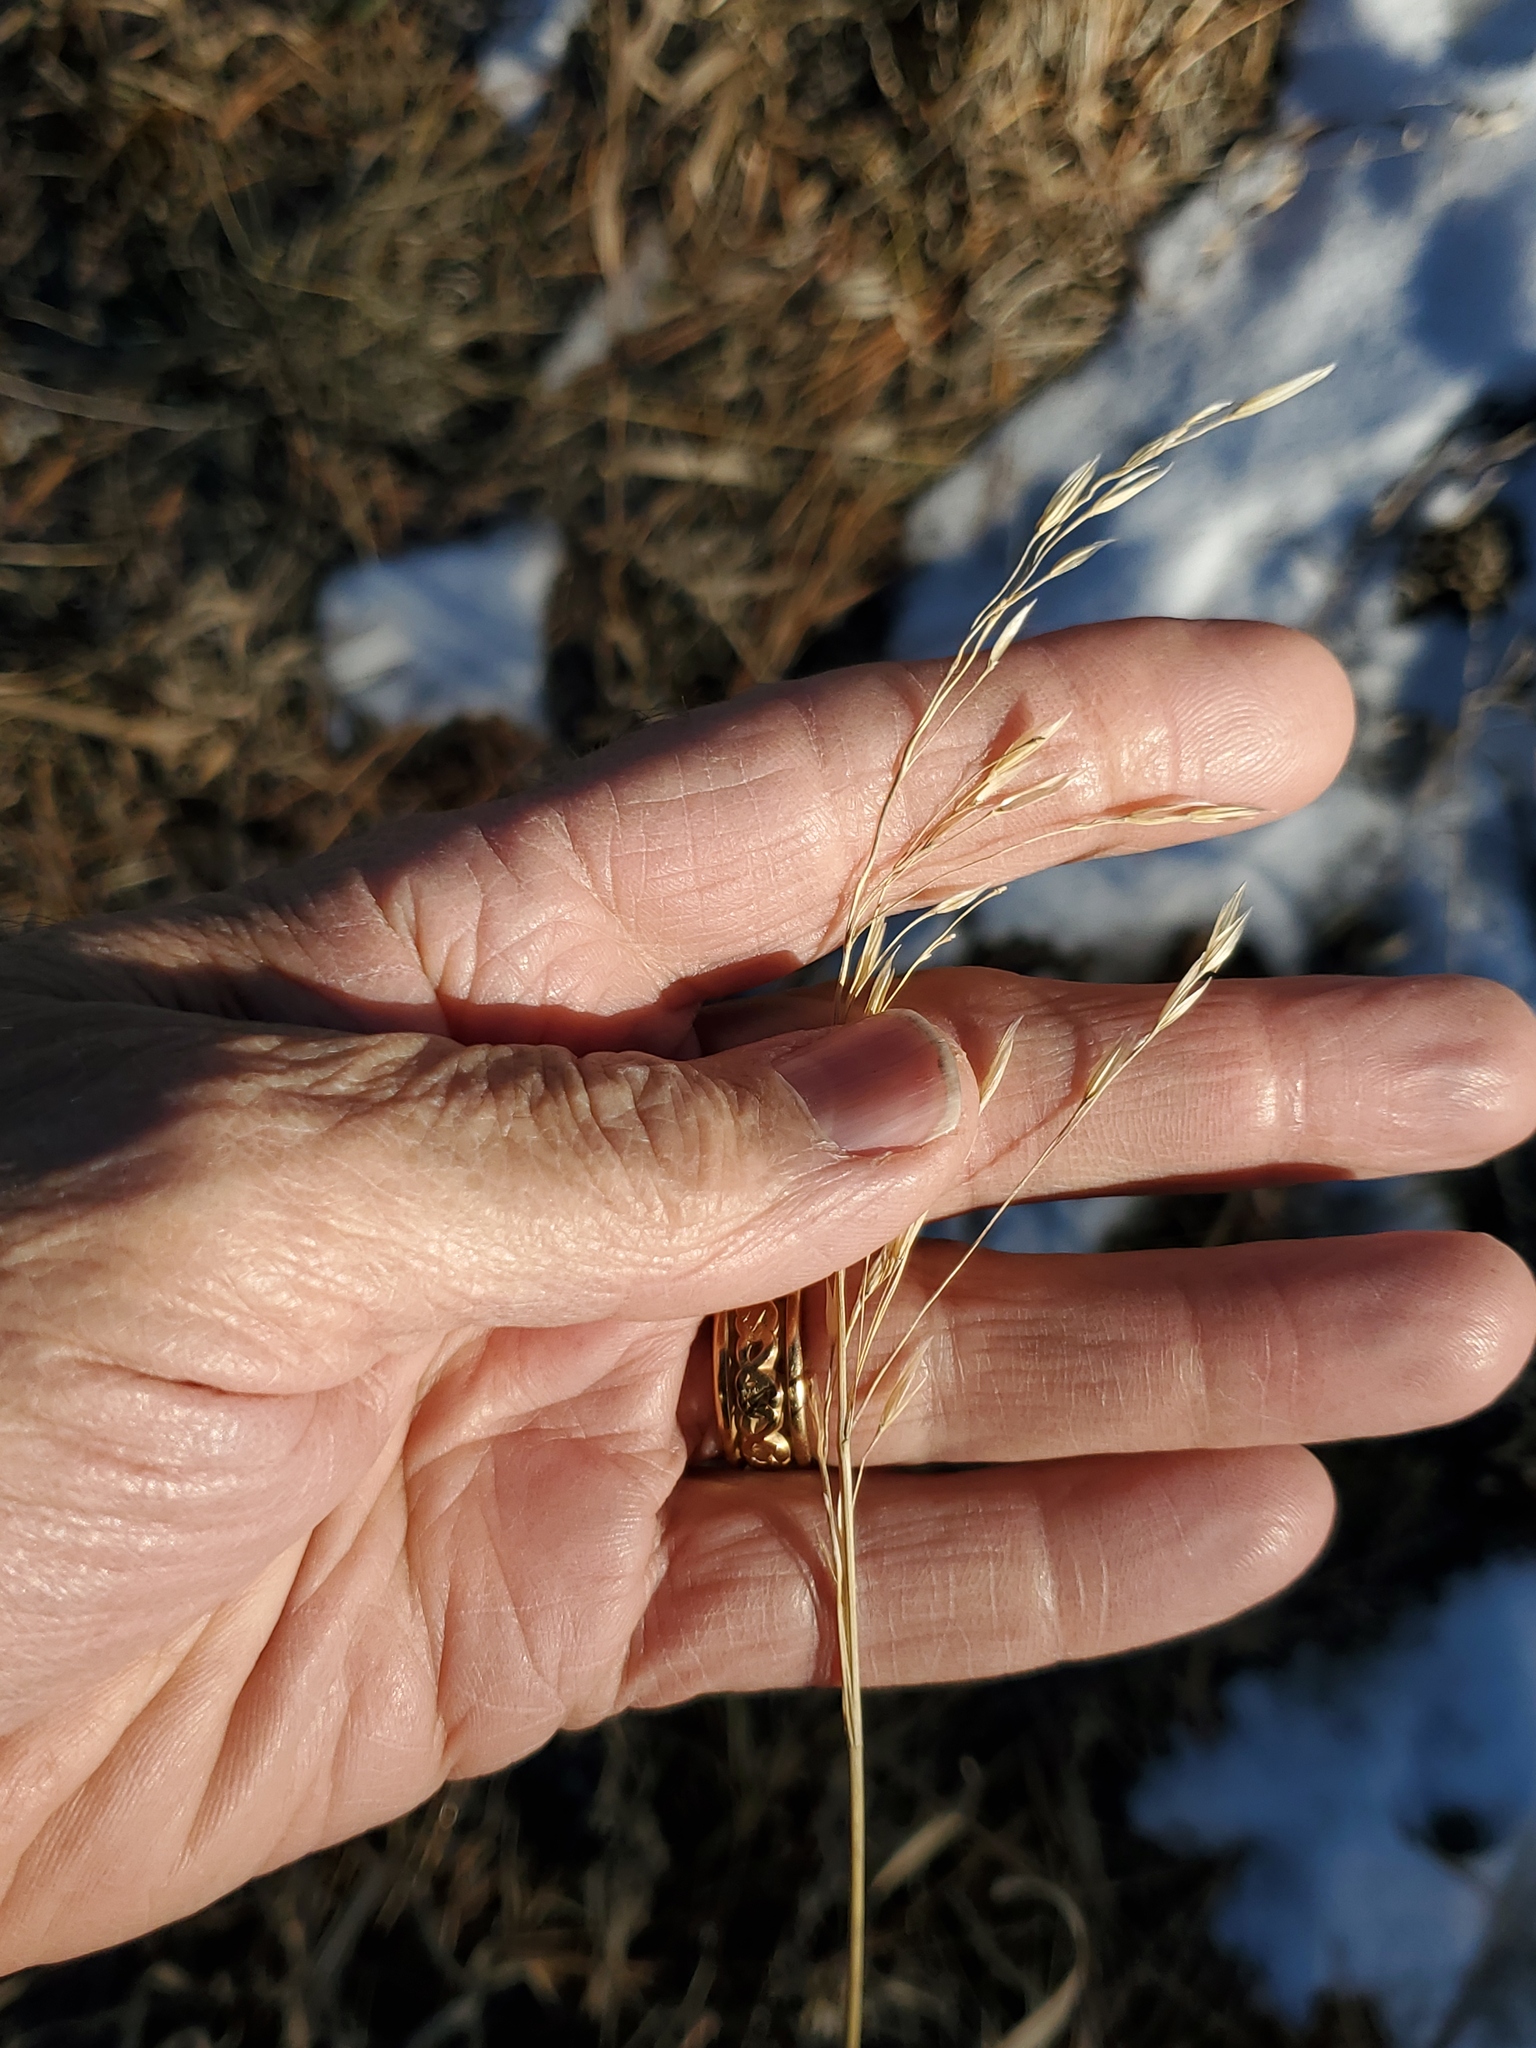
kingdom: Plantae
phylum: Tracheophyta
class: Liliopsida
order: Poales
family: Poaceae
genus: Bromus
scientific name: Bromus inermis
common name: Smooth brome
